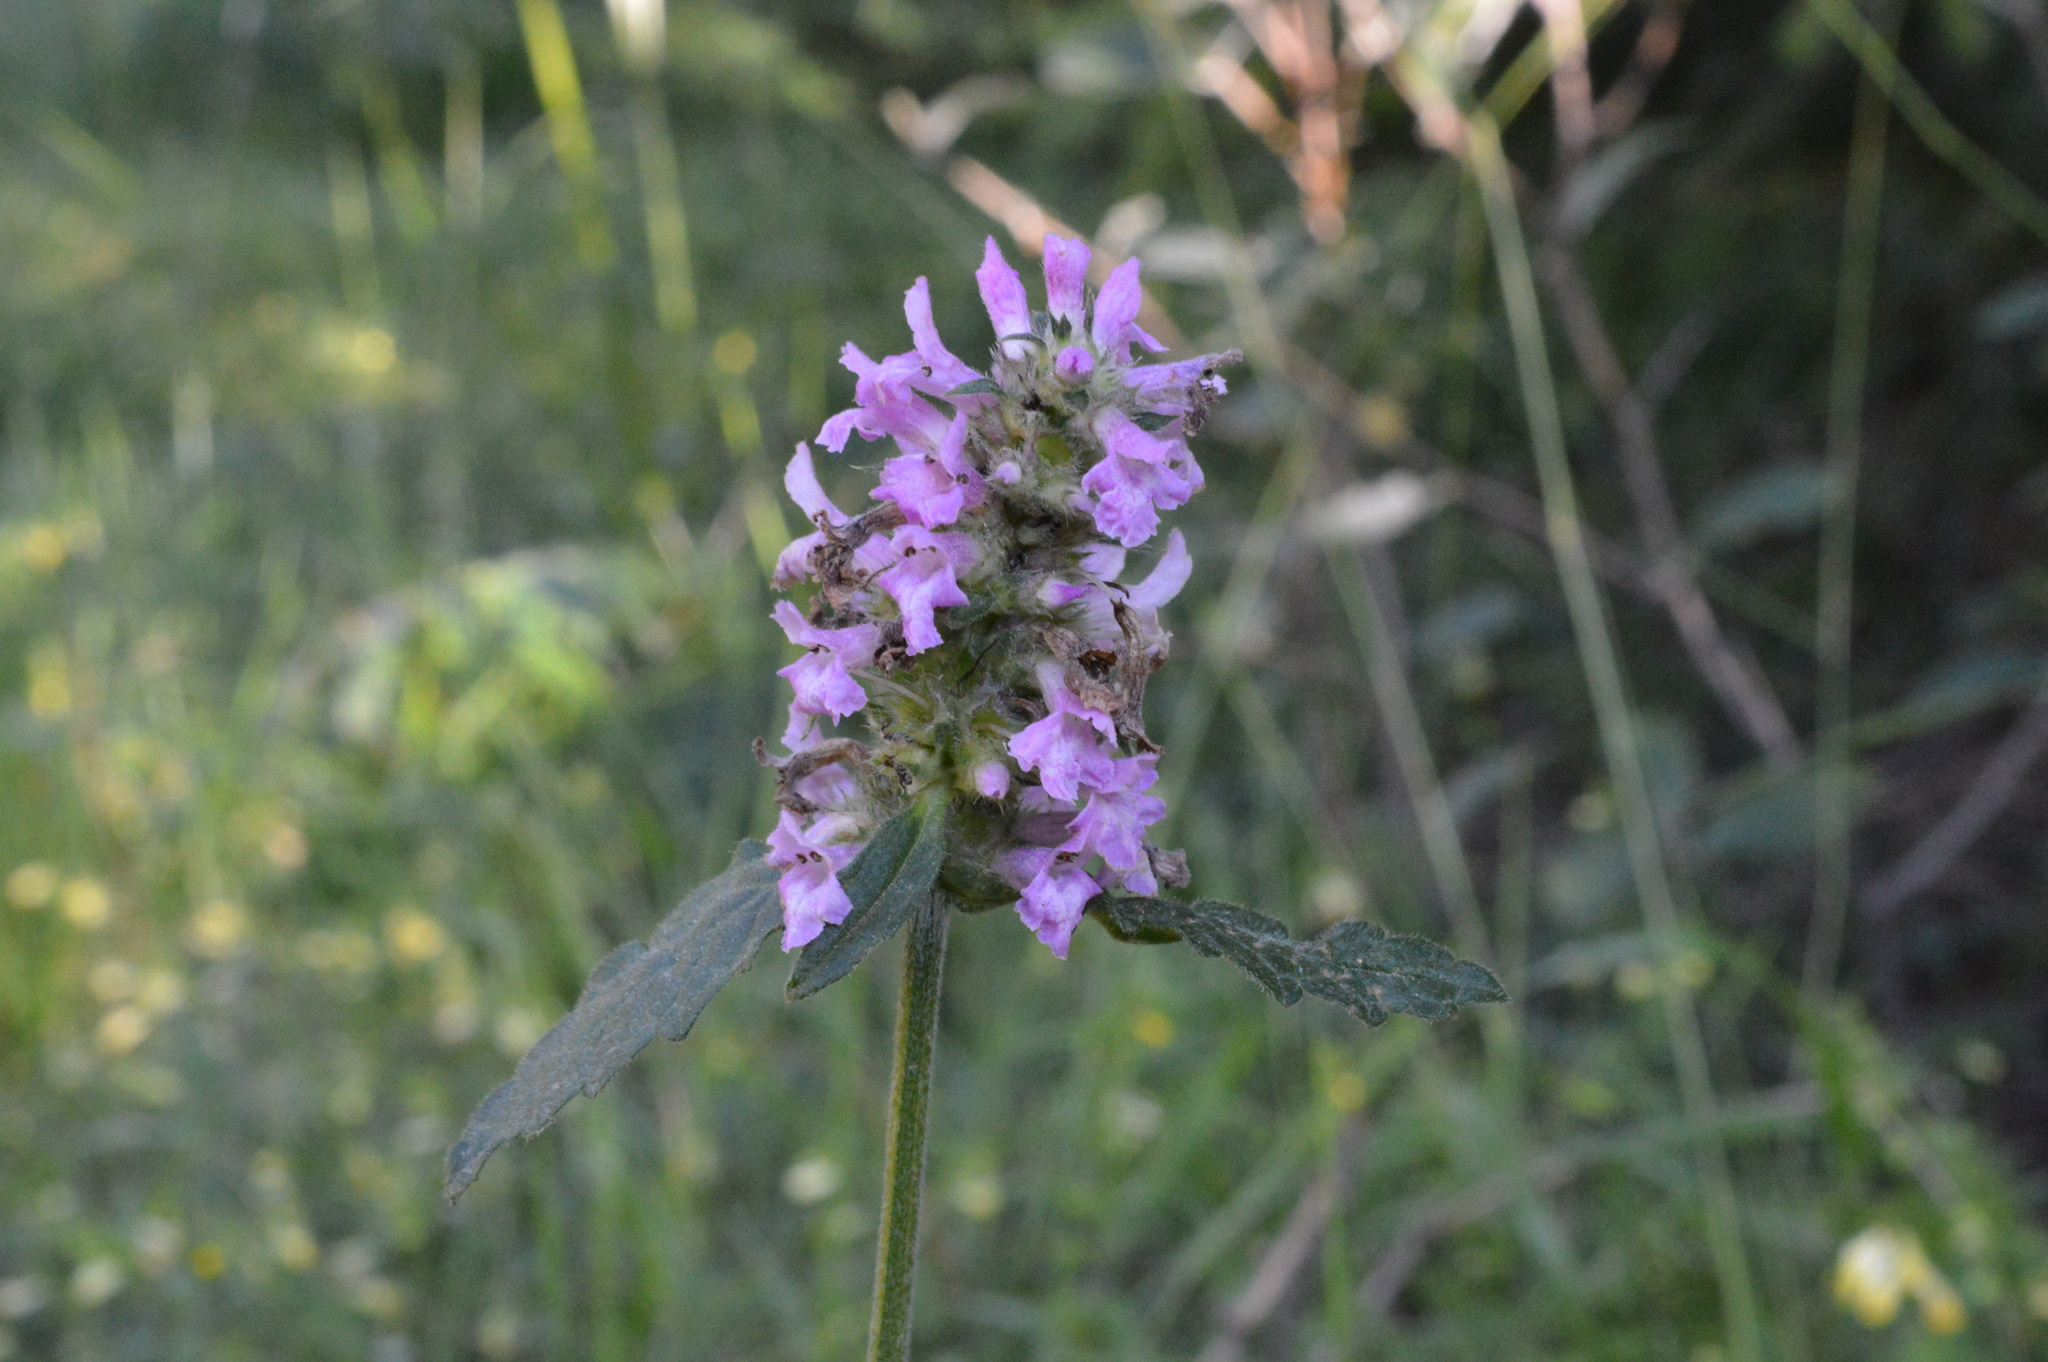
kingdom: Plantae
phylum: Tracheophyta
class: Magnoliopsida
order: Lamiales
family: Lamiaceae
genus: Betonica
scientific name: Betonica officinalis
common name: Bishop's-wort
